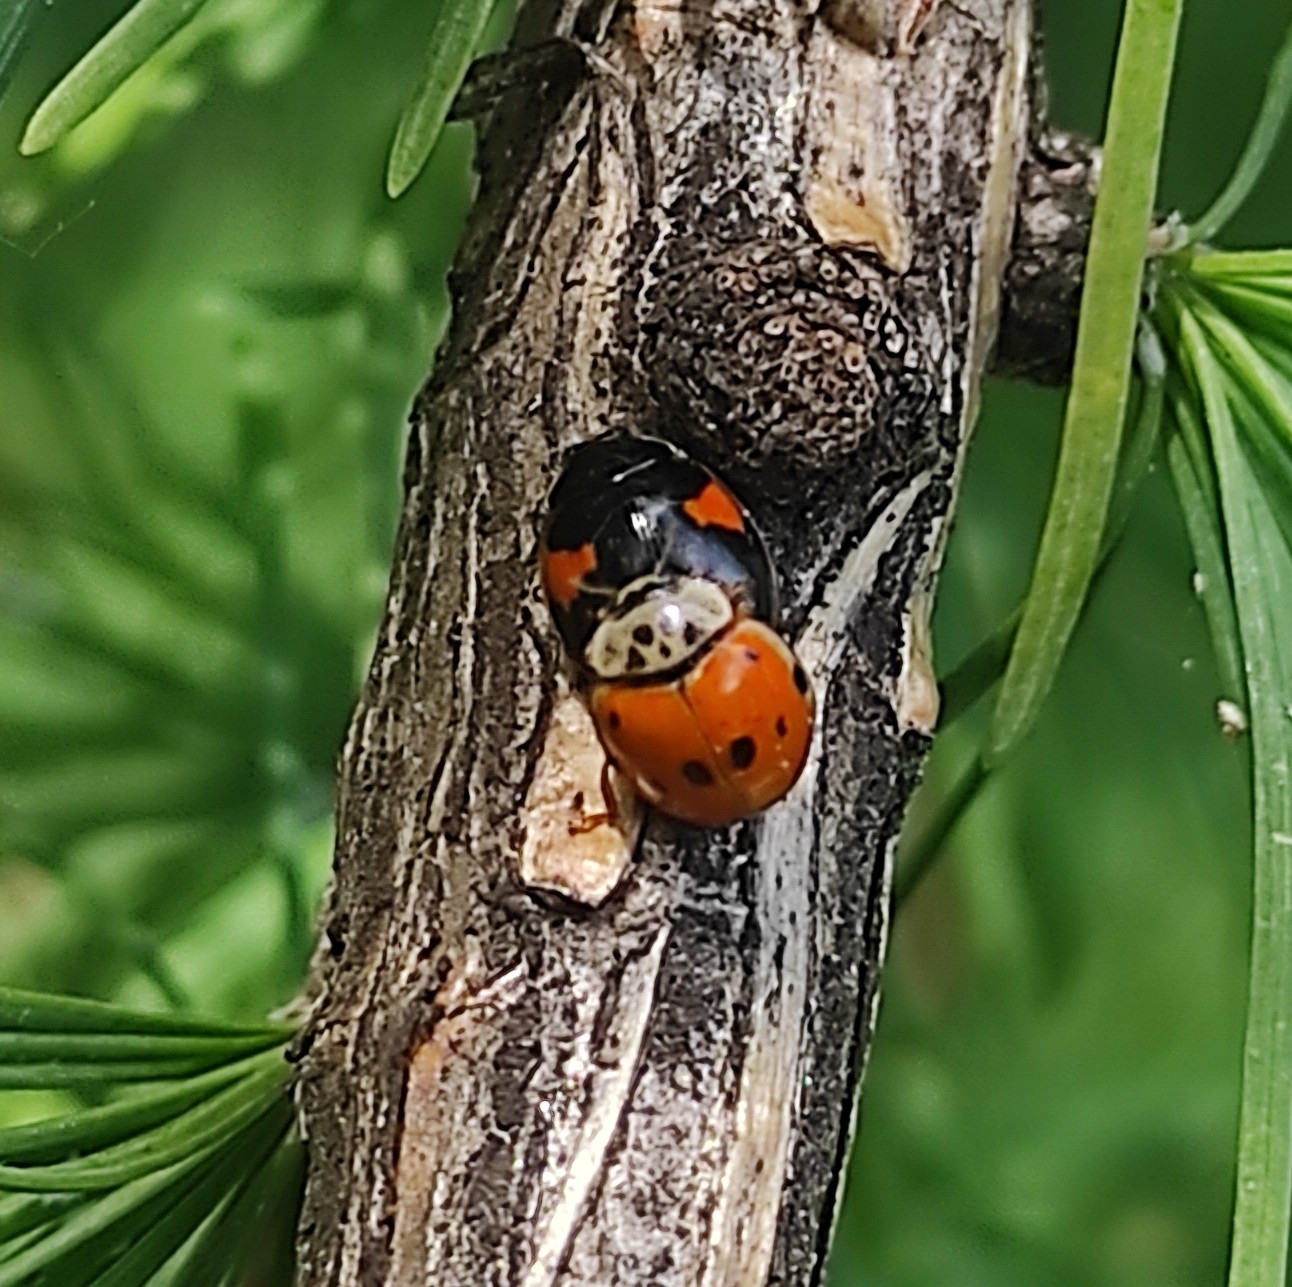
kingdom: Animalia
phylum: Arthropoda
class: Insecta
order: Coleoptera
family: Coccinellidae
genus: Adalia
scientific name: Adalia decempunctata
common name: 10-spot ladybird
